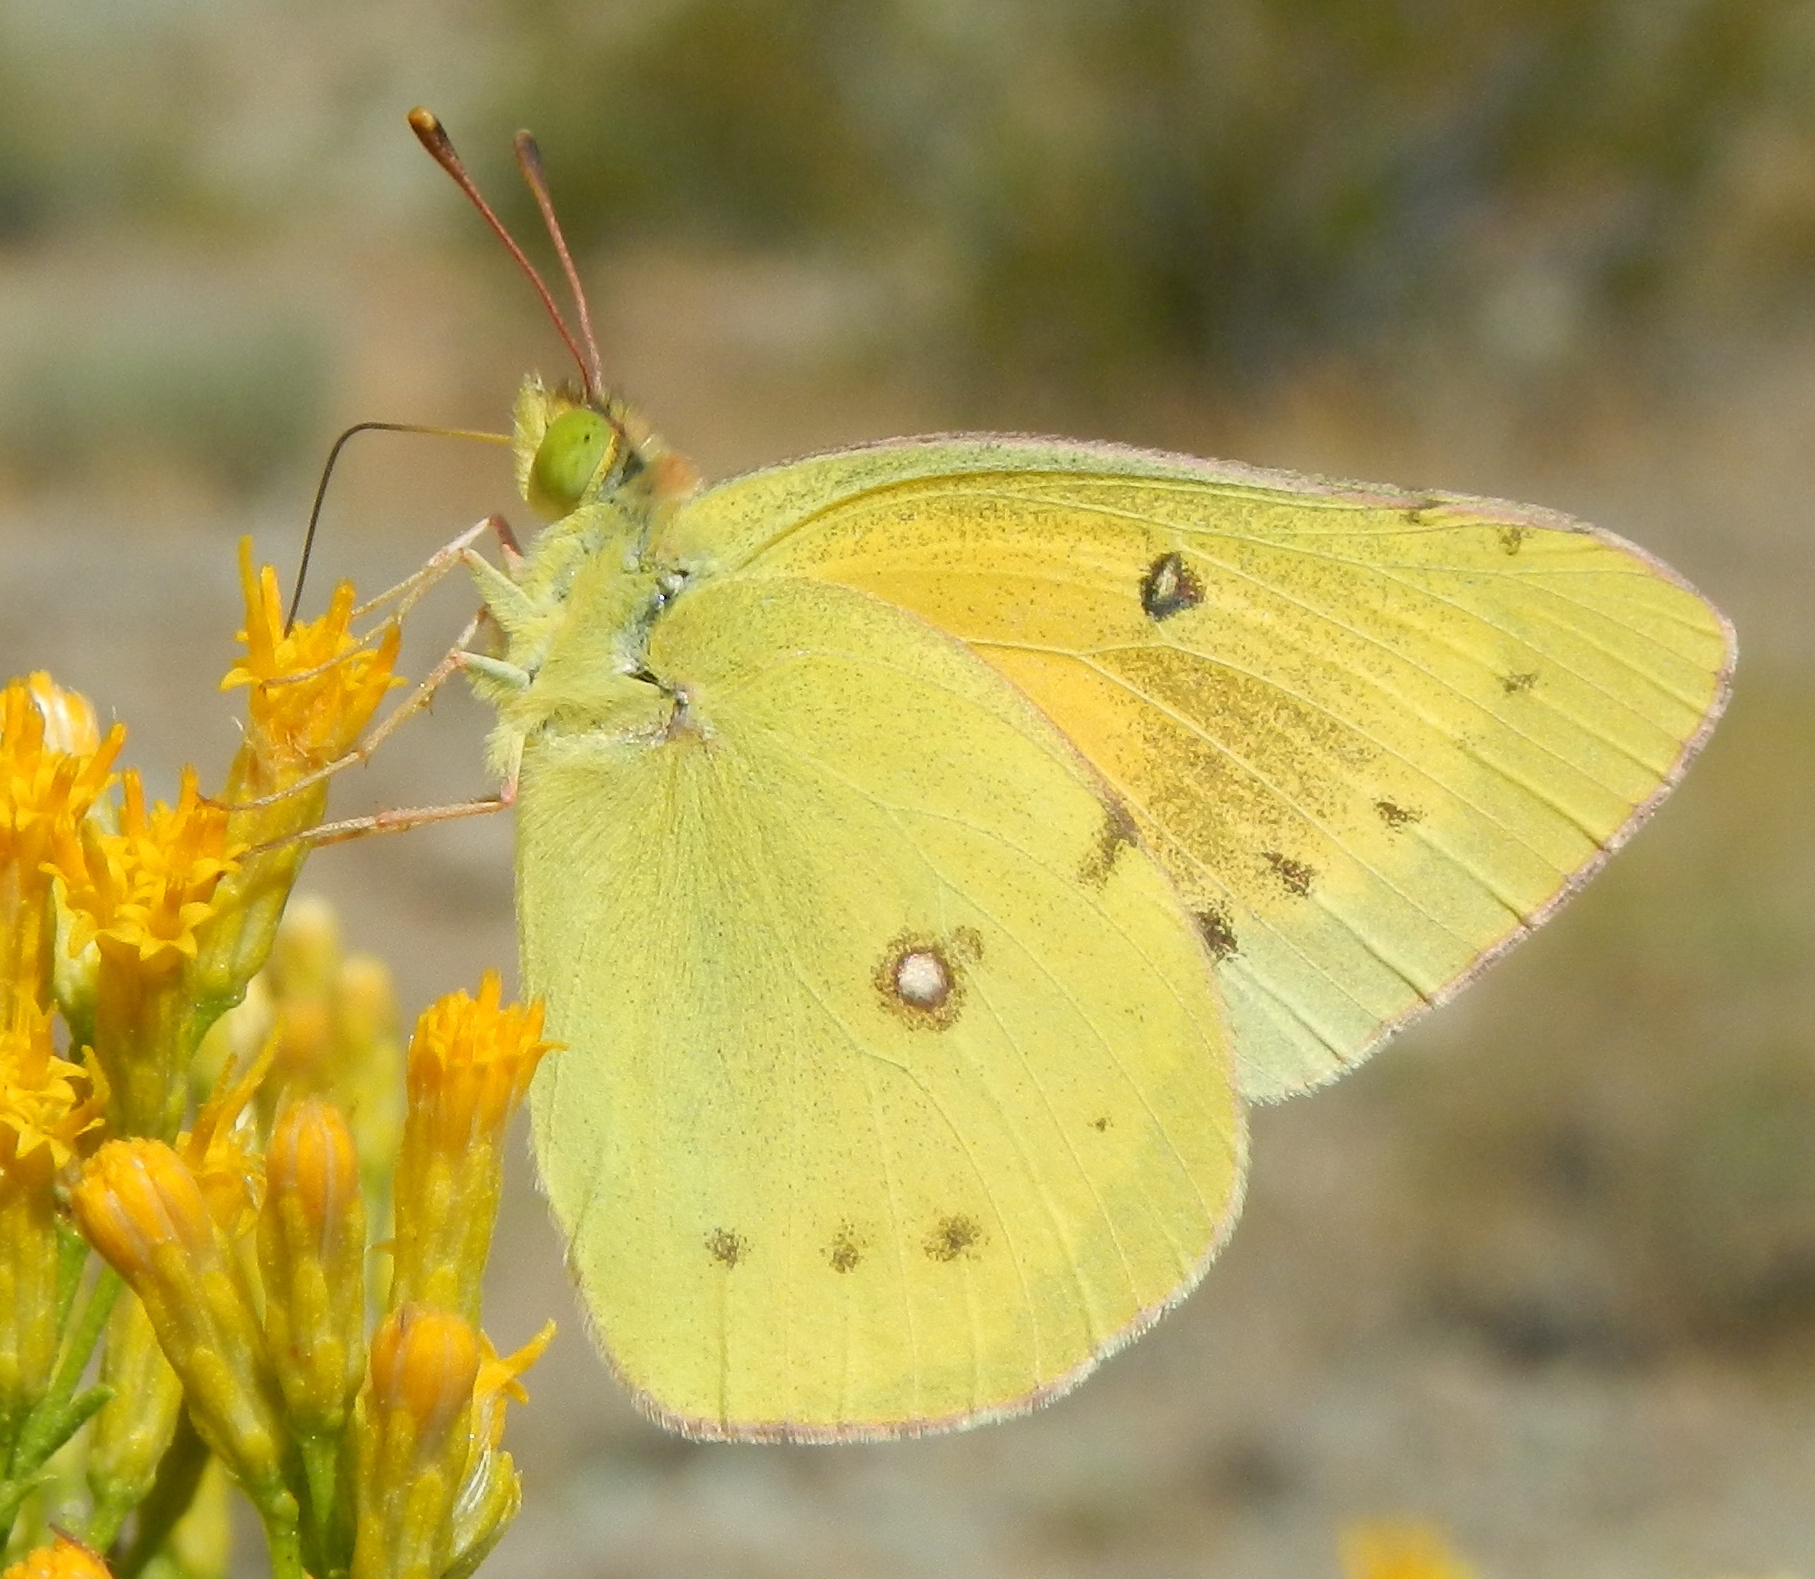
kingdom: Animalia
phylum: Arthropoda
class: Insecta
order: Lepidoptera
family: Pieridae
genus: Colias
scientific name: Colias eurytheme
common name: Alfalfa butterfly
